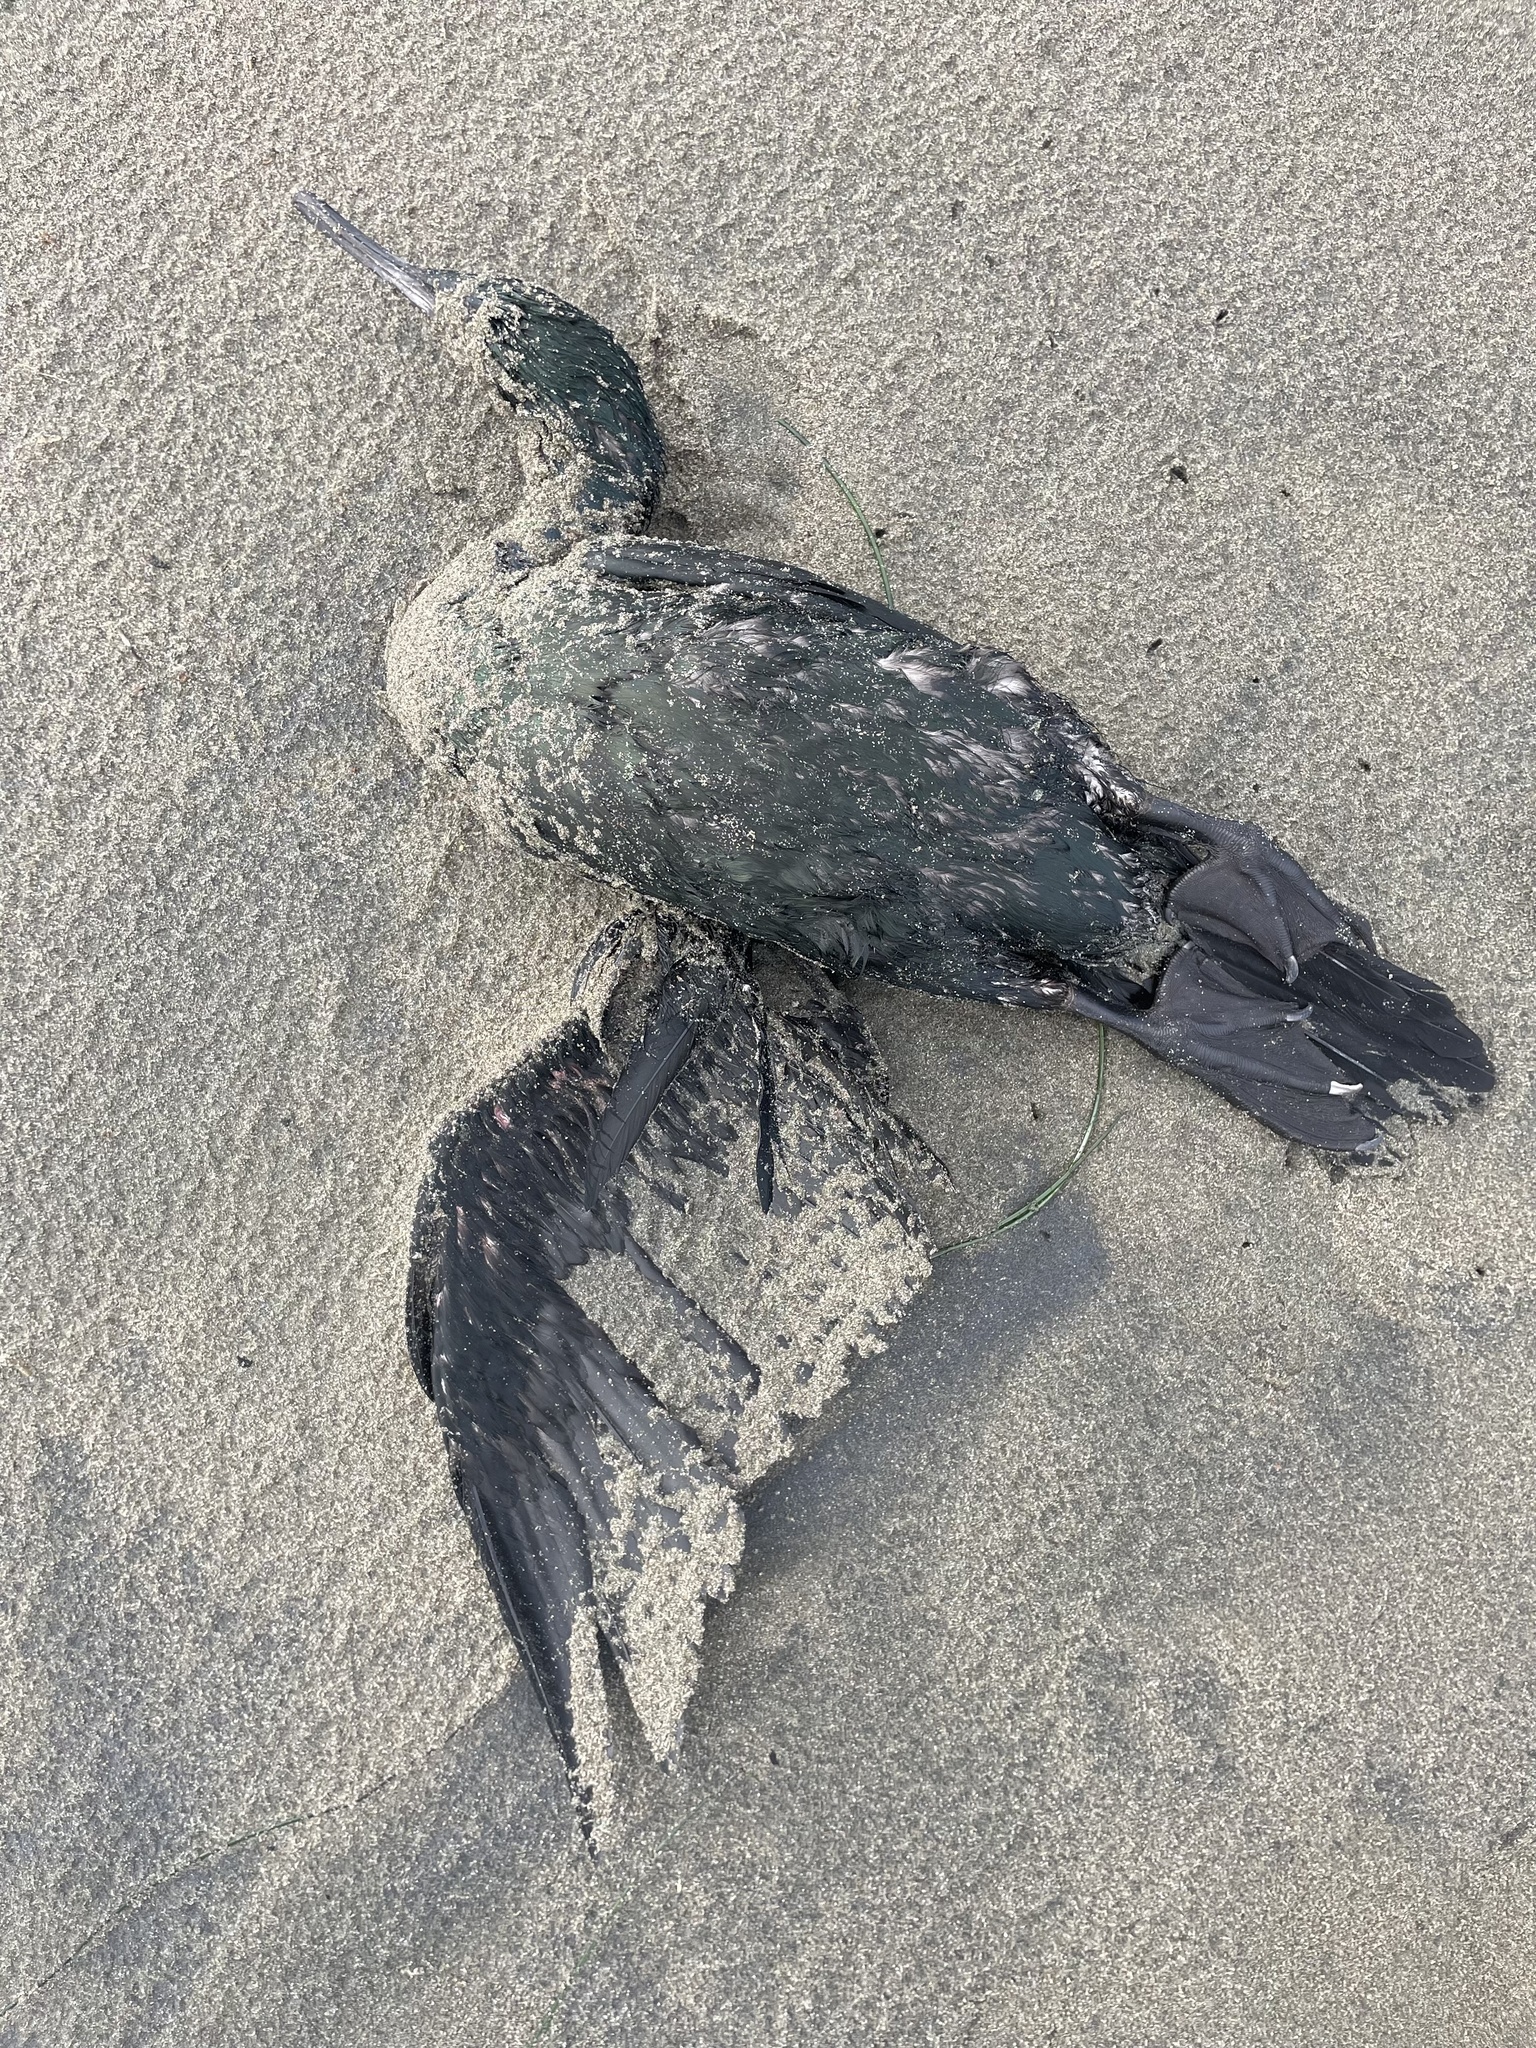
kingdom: Animalia
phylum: Chordata
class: Aves
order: Suliformes
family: Phalacrocoracidae
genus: Phalacrocorax
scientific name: Phalacrocorax pelagicus
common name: Pelagic cormorant
